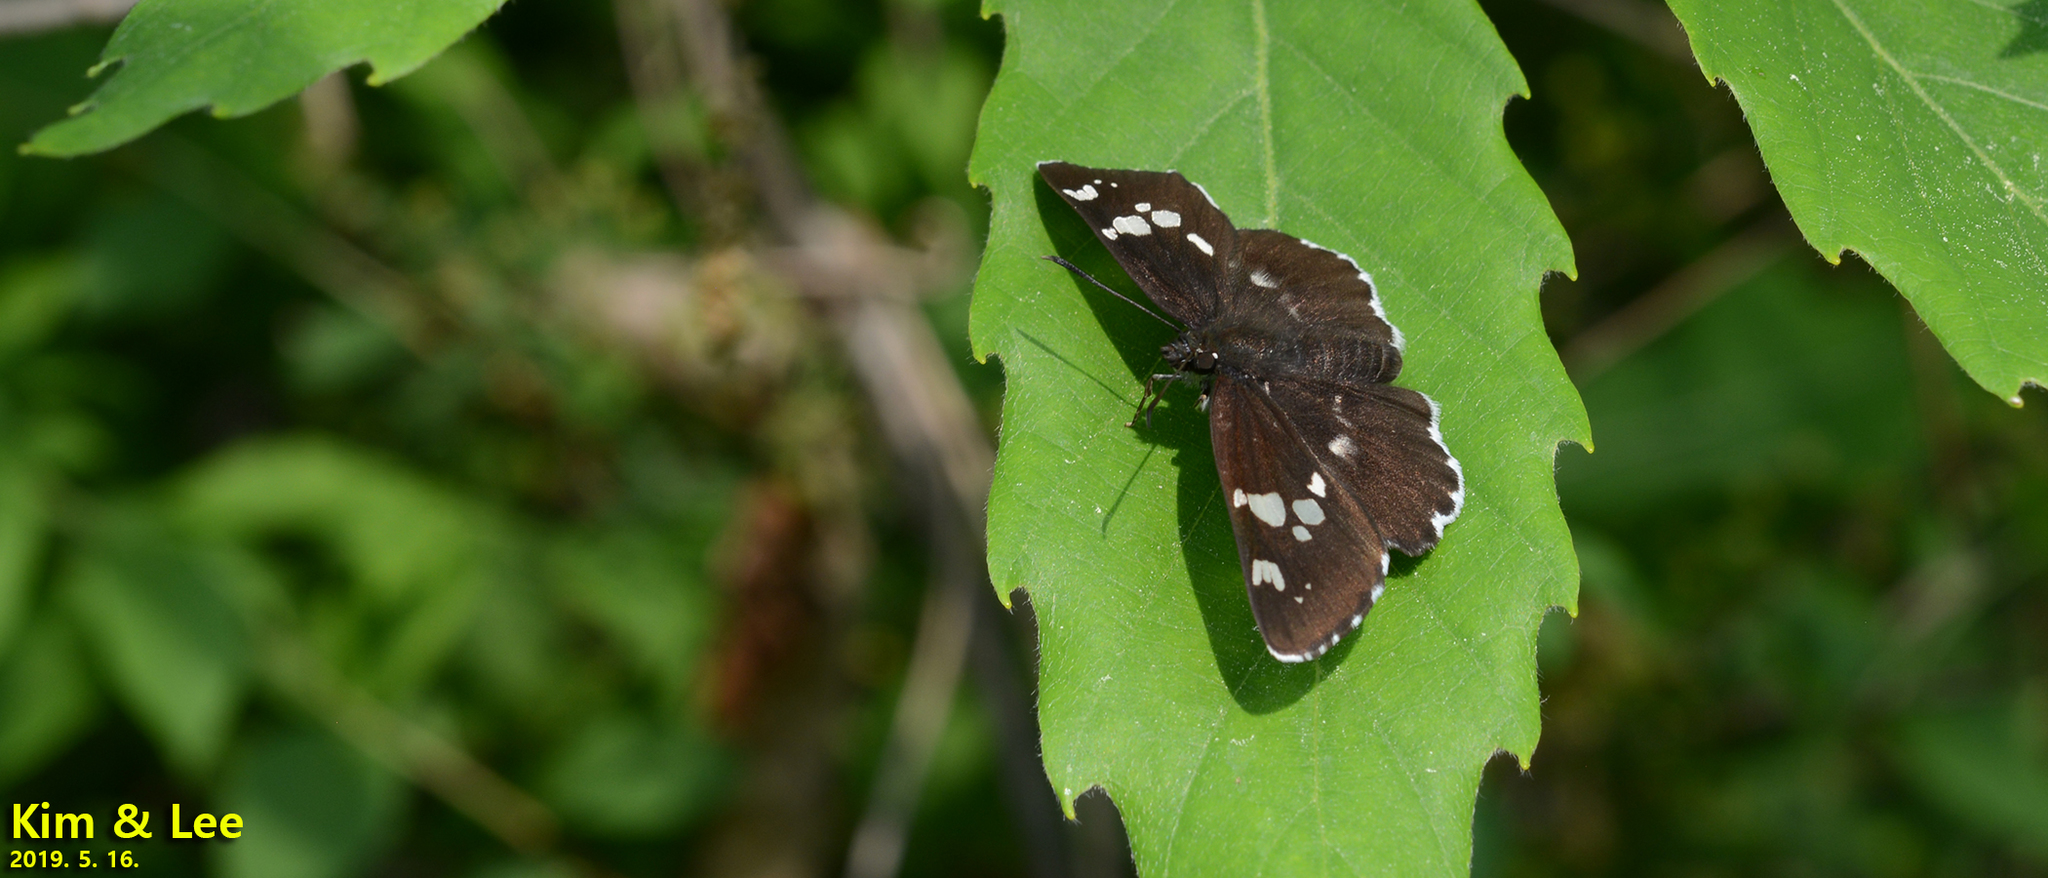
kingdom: Animalia
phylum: Arthropoda
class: Insecta
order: Lepidoptera
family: Hesperiidae
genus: Daimio
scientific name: Daimio tethys
